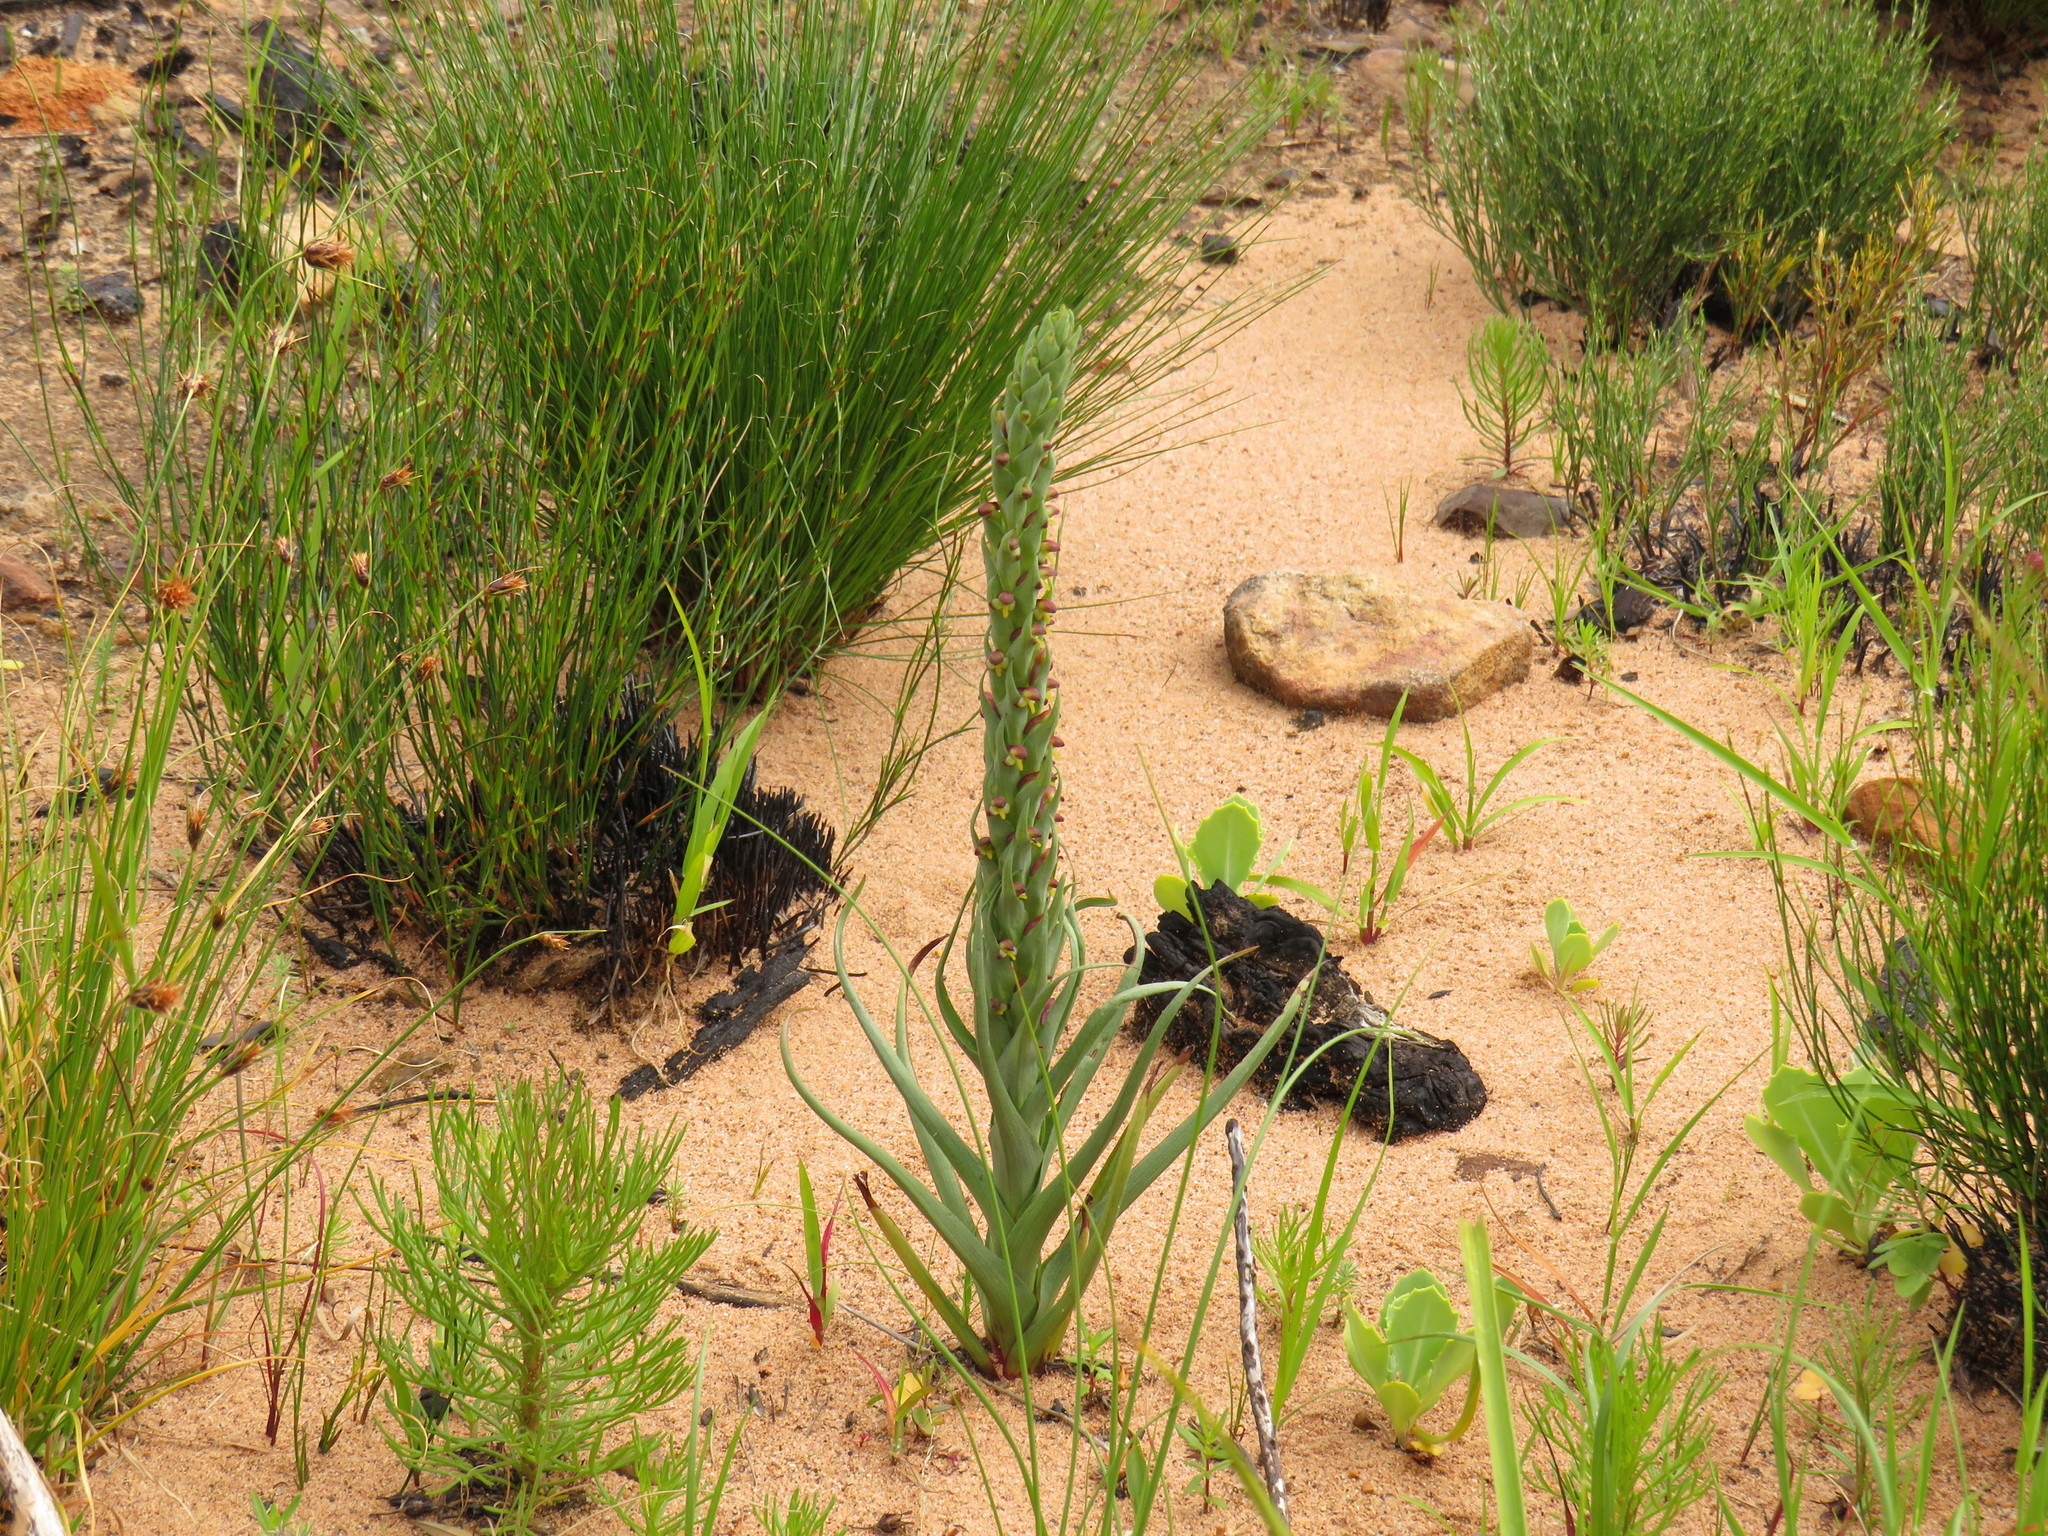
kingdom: Plantae
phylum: Tracheophyta
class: Liliopsida
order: Asparagales
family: Orchidaceae
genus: Disa
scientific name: Disa bracteata
